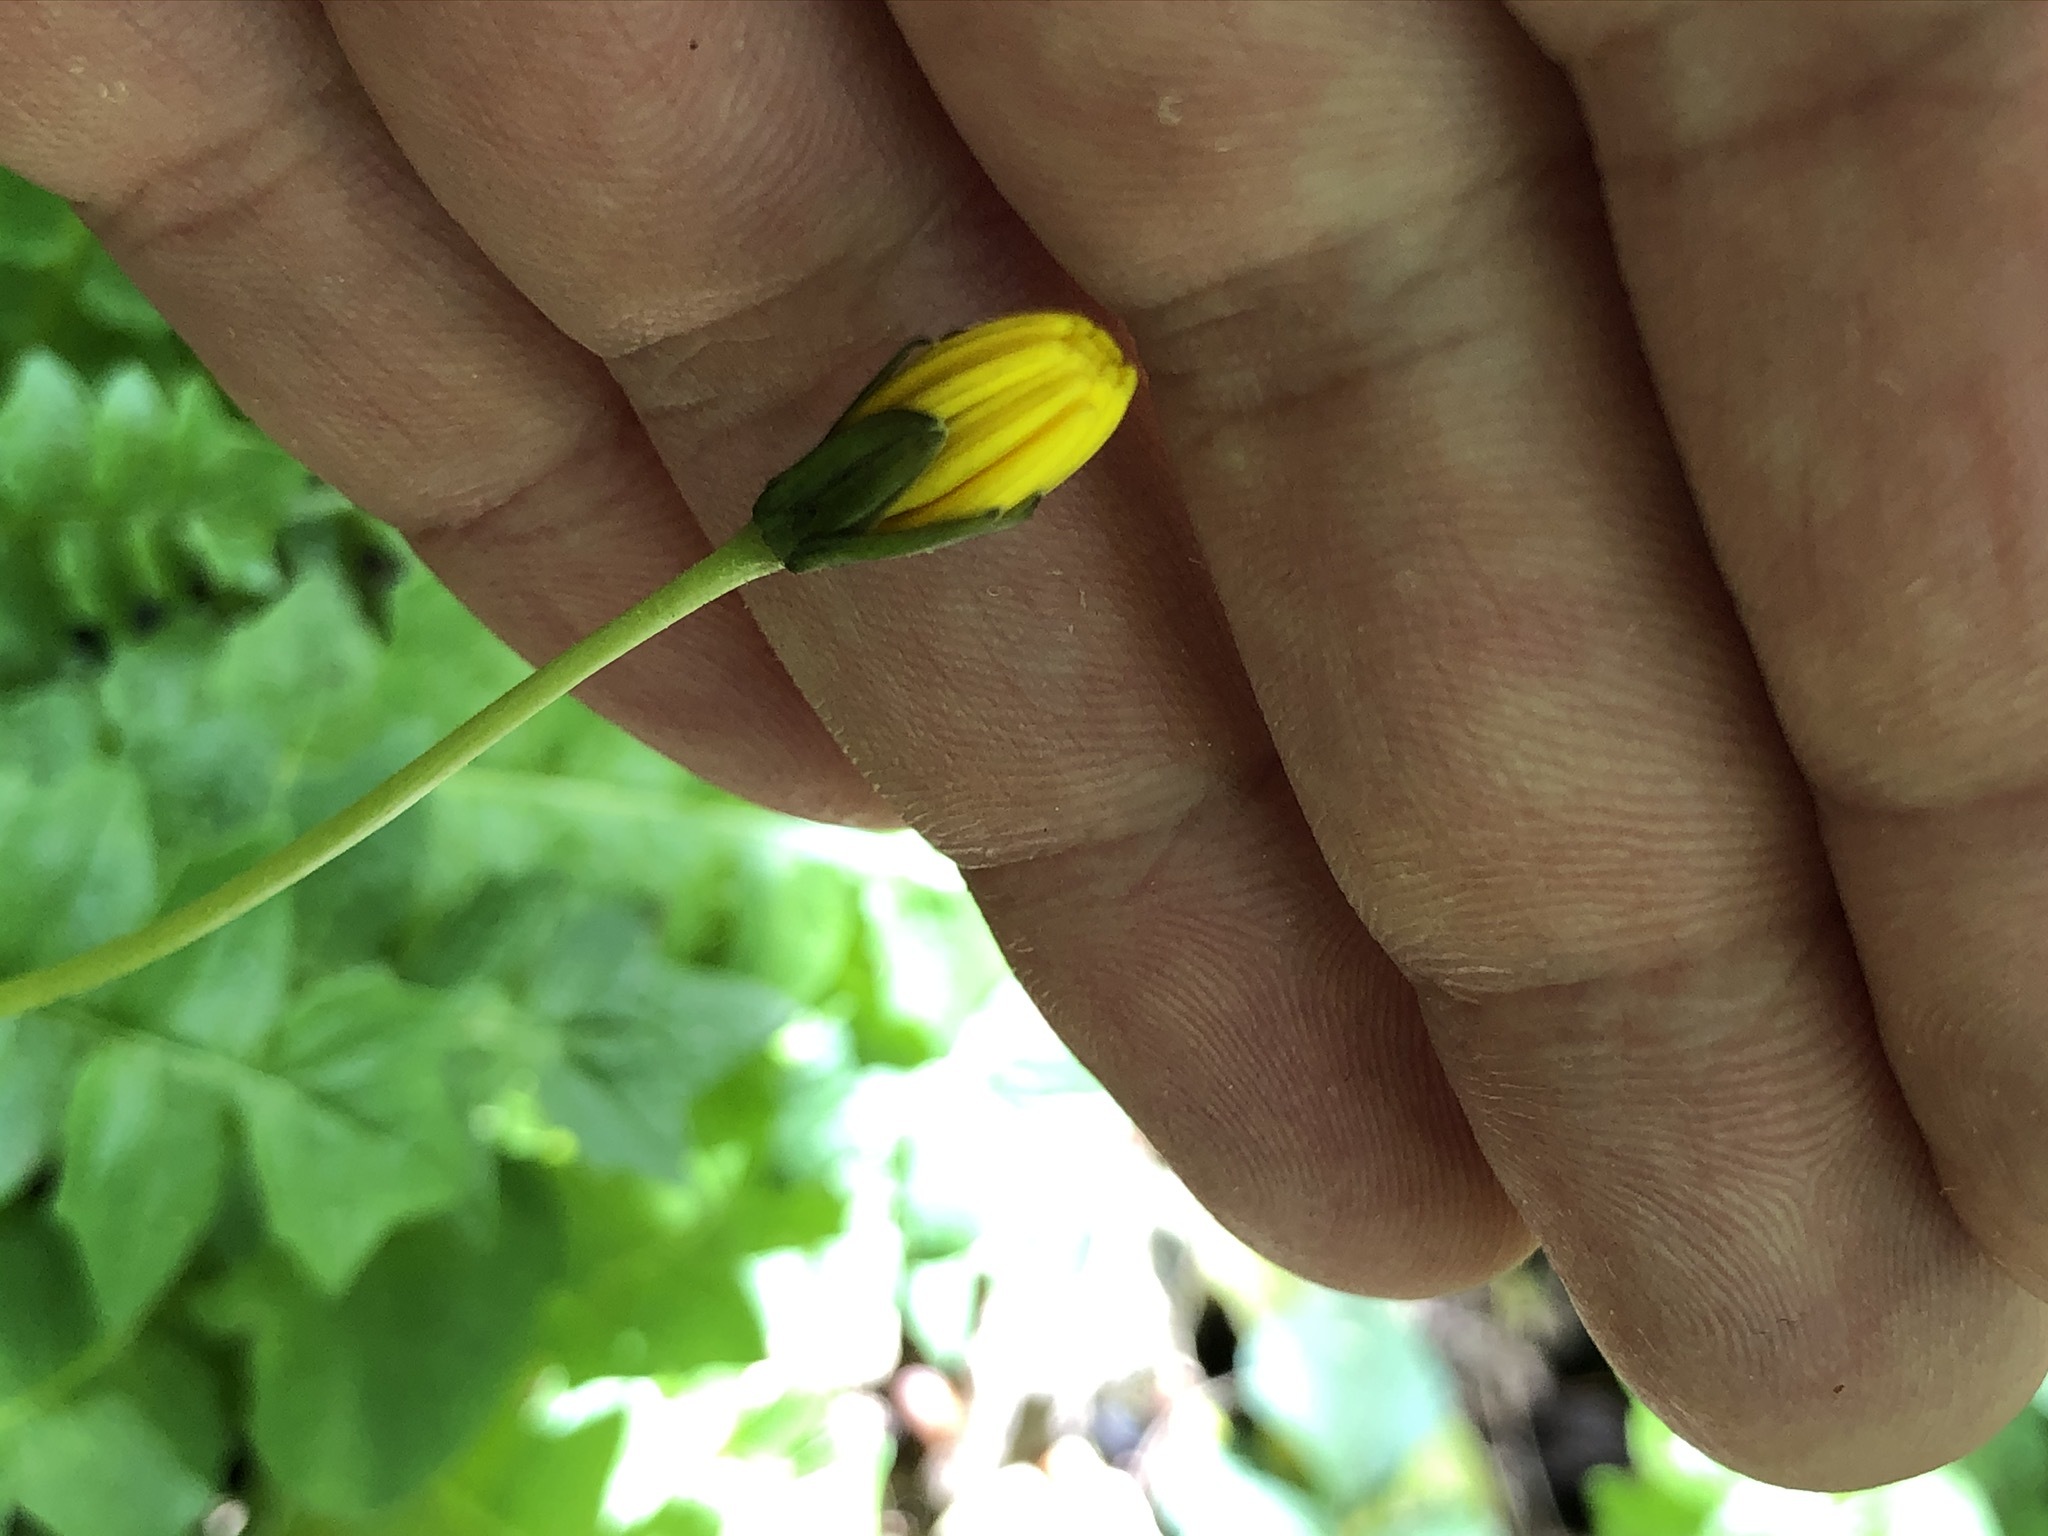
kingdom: Plantae
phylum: Tracheophyta
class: Magnoliopsida
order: Asterales
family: Asteraceae
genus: Aposeris
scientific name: Aposeris foetida
